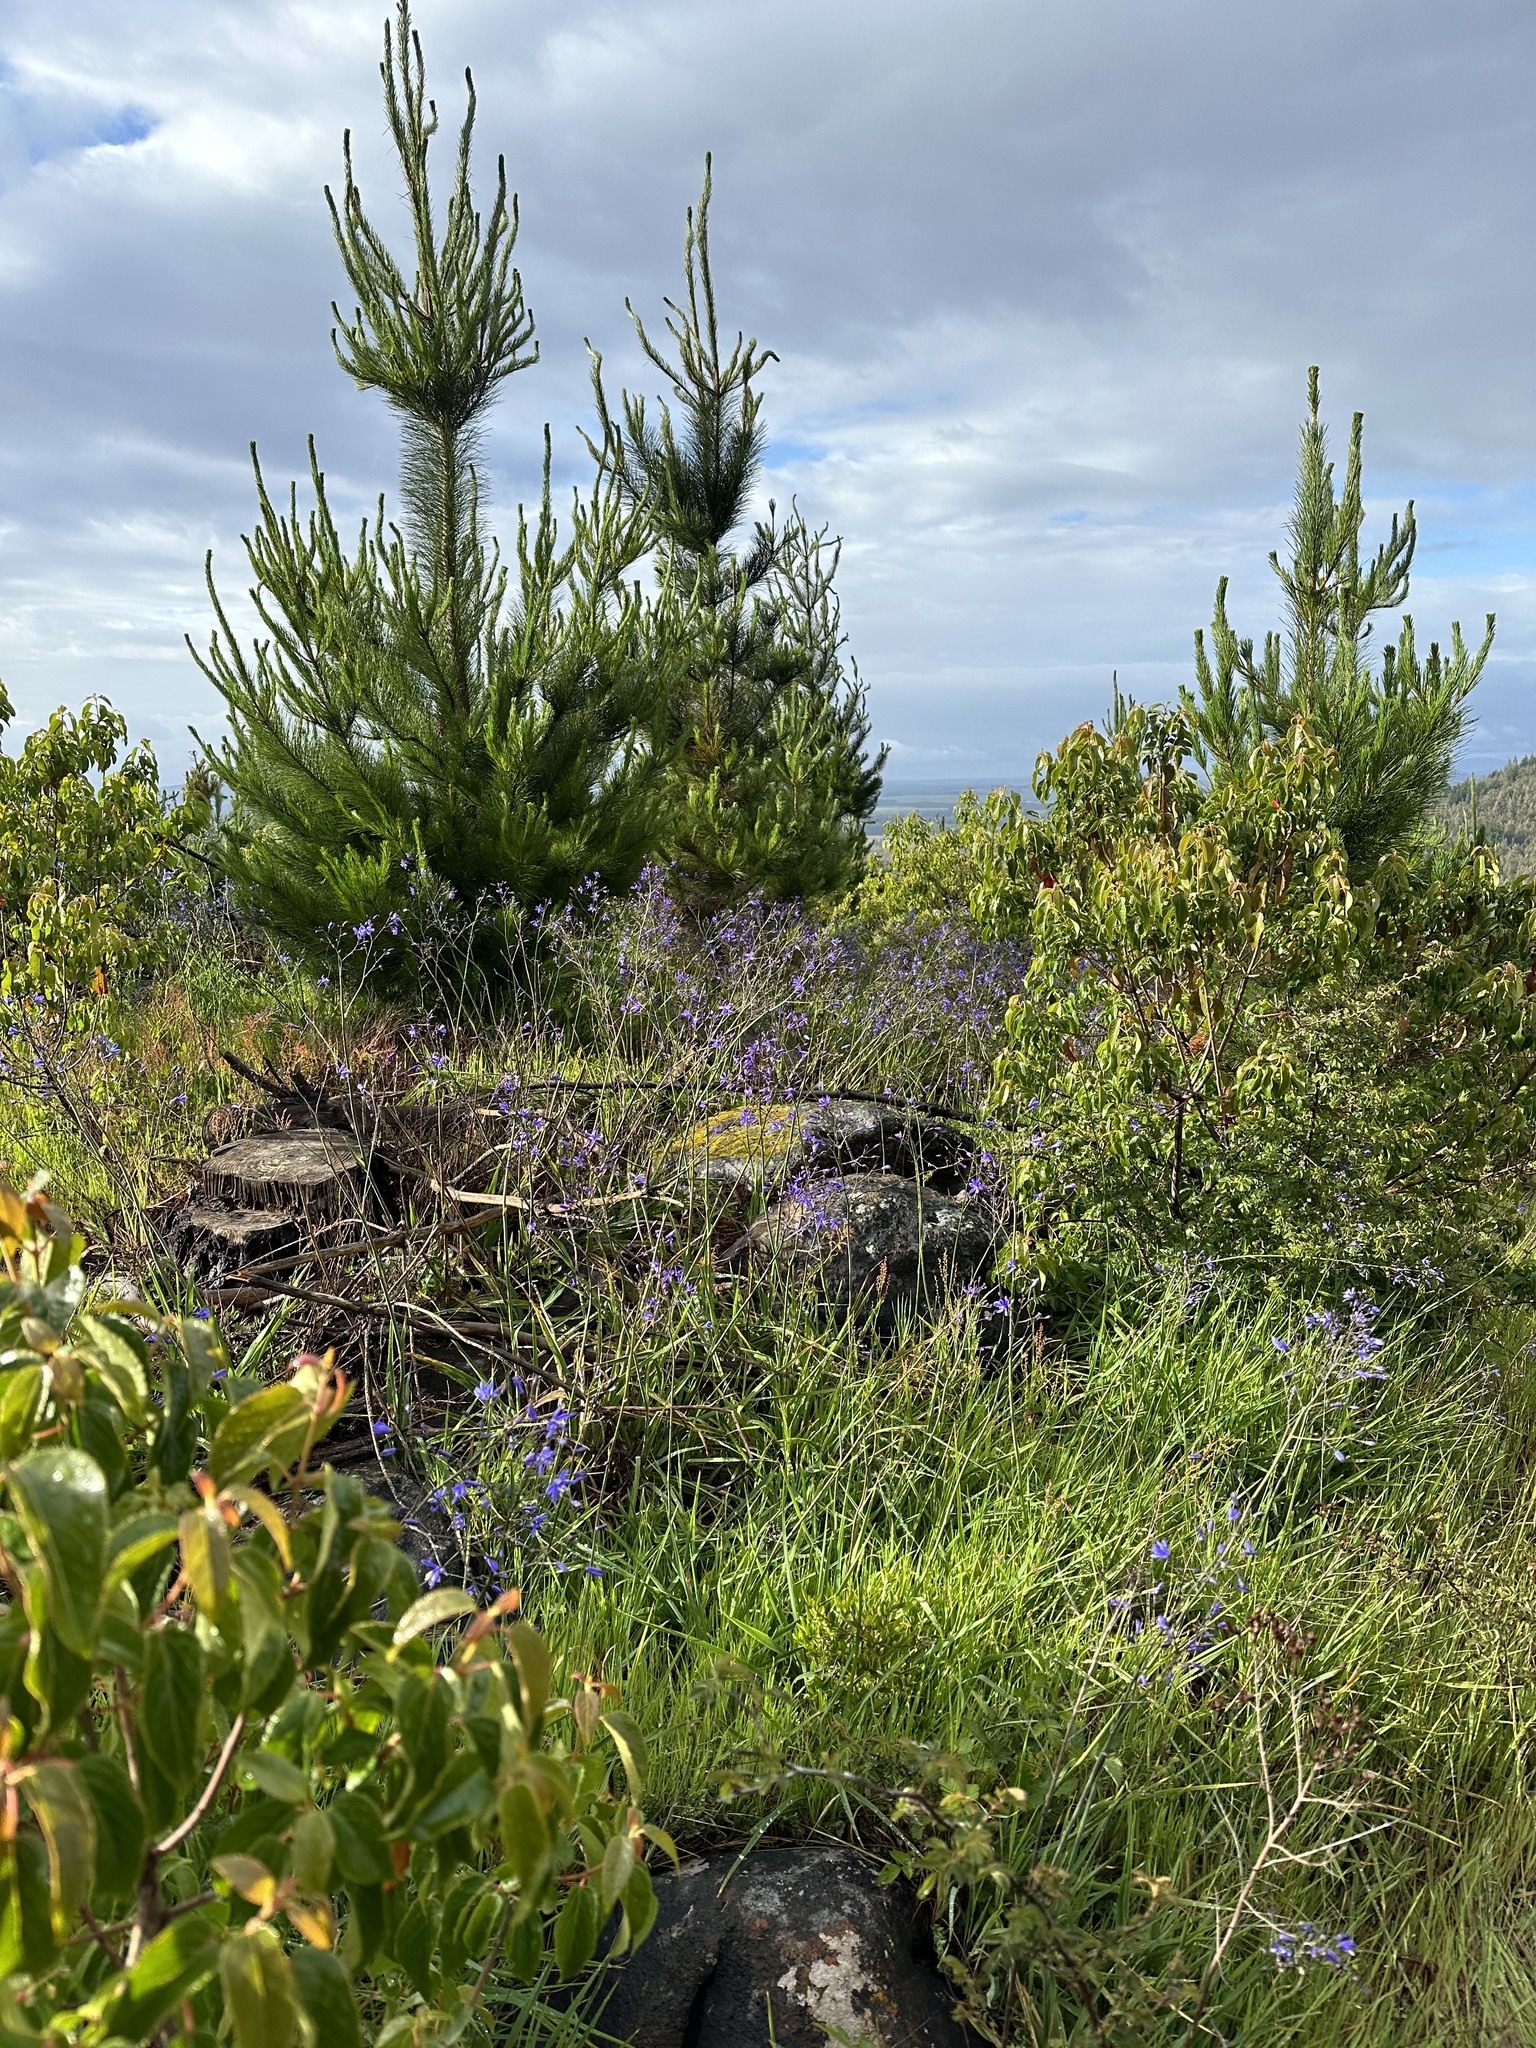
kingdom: Plantae
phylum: Tracheophyta
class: Liliopsida
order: Asparagales
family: Asphodelaceae
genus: Pasithea
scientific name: Pasithea caerulea
